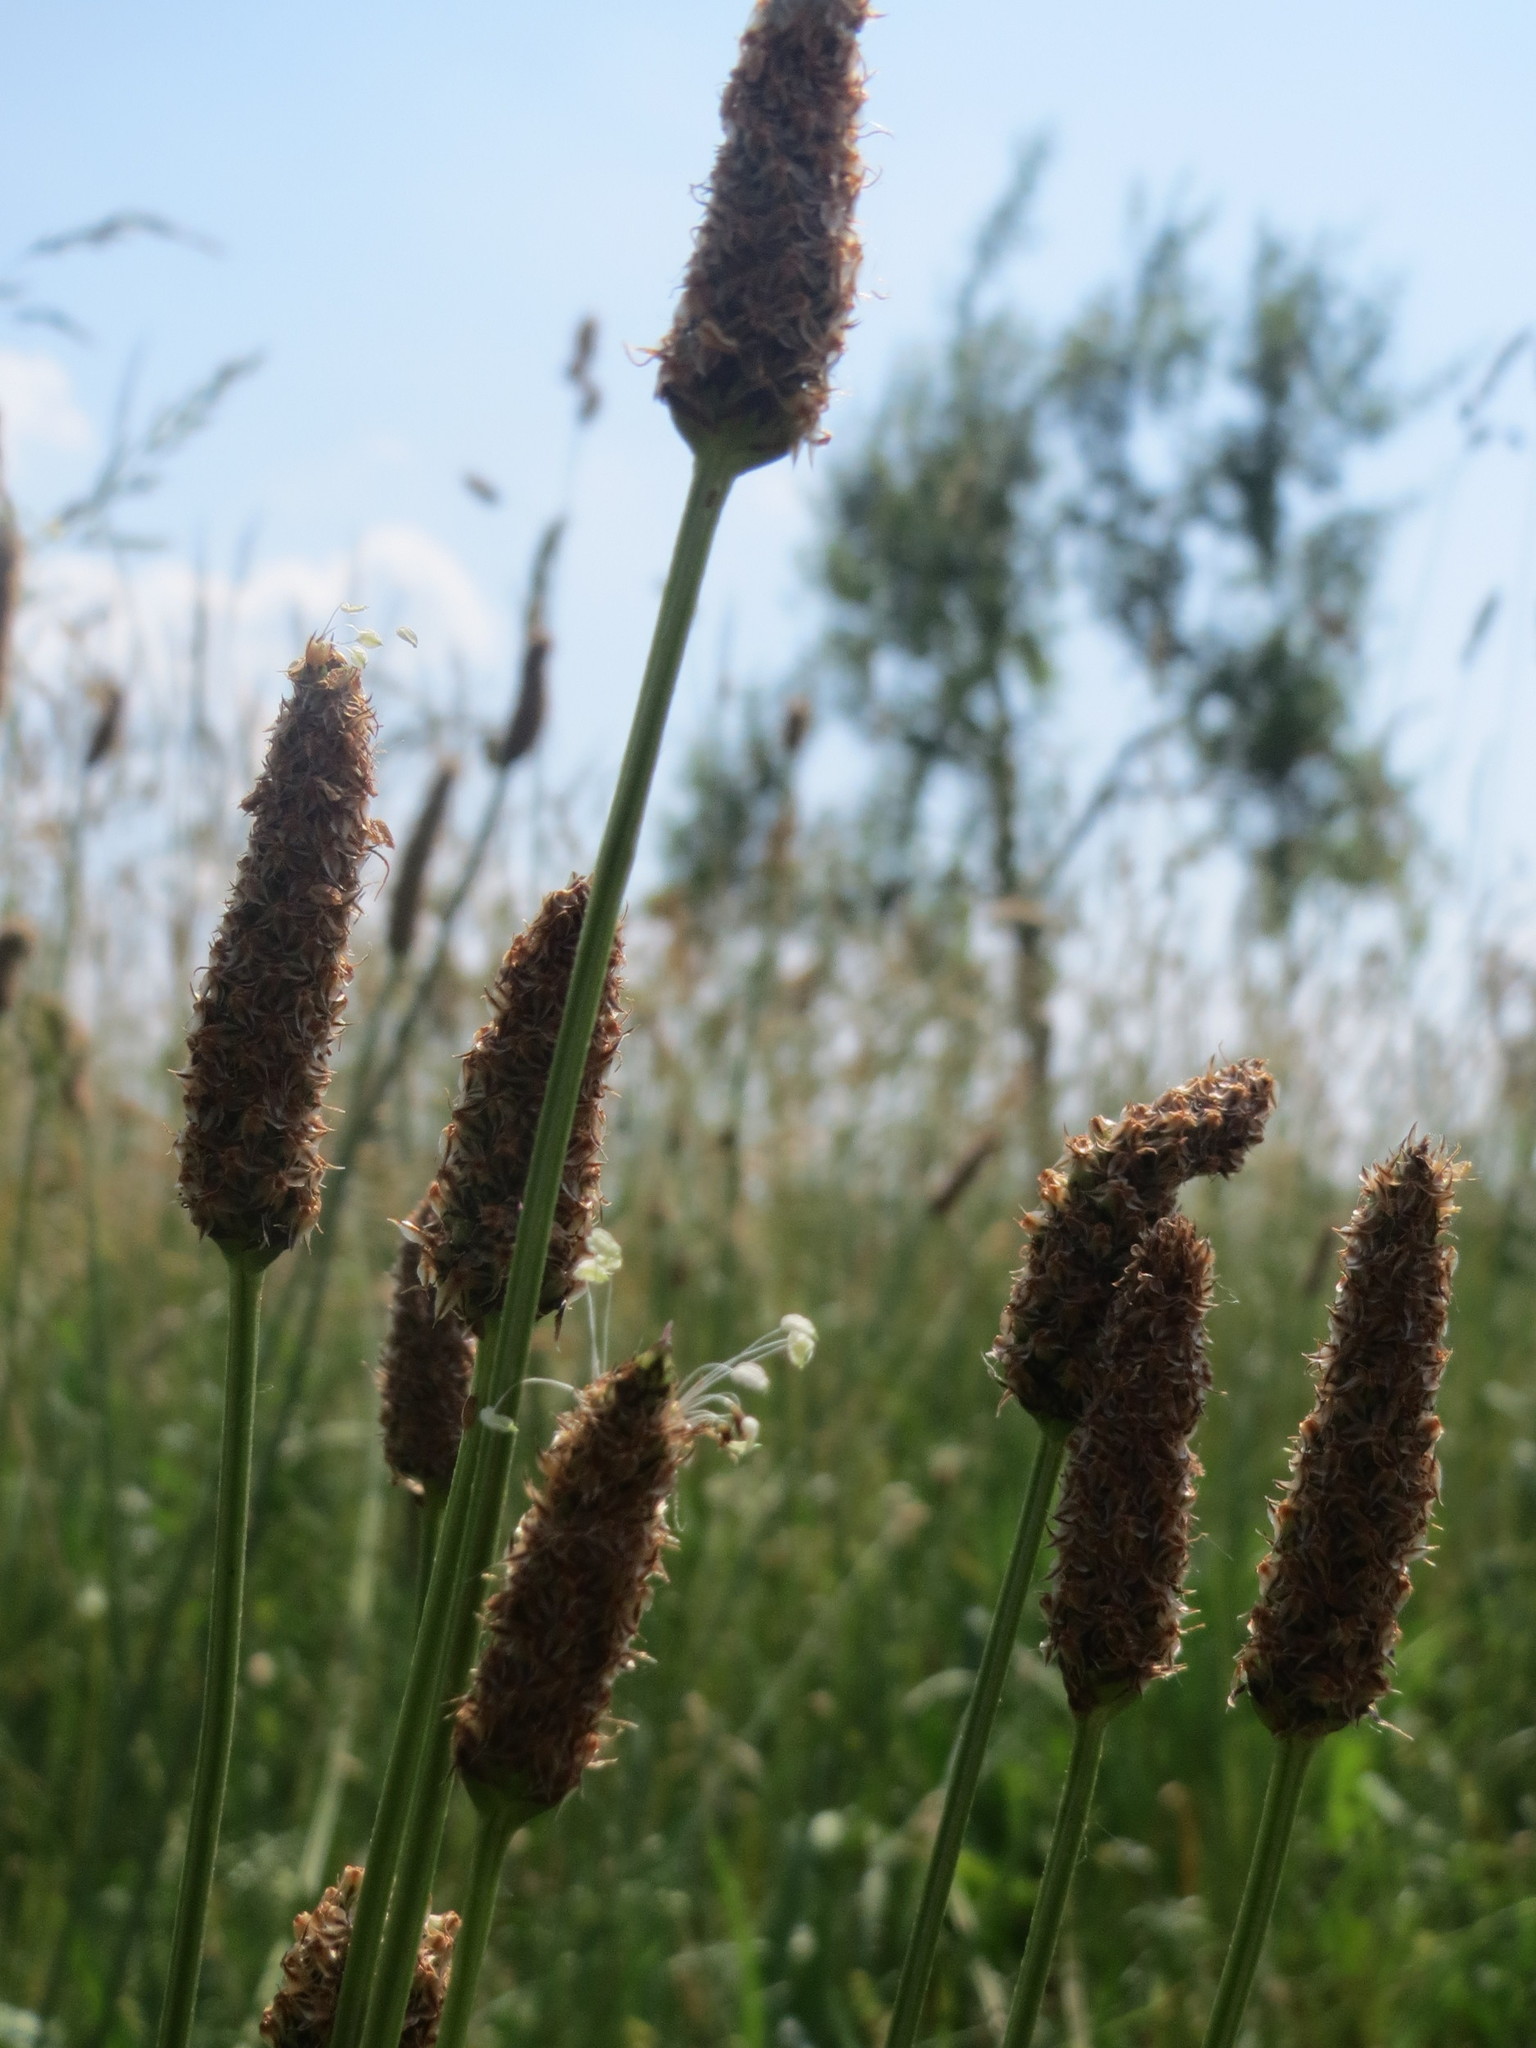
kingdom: Plantae
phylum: Tracheophyta
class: Magnoliopsida
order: Lamiales
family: Plantaginaceae
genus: Plantago
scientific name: Plantago lanceolata
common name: Ribwort plantain
